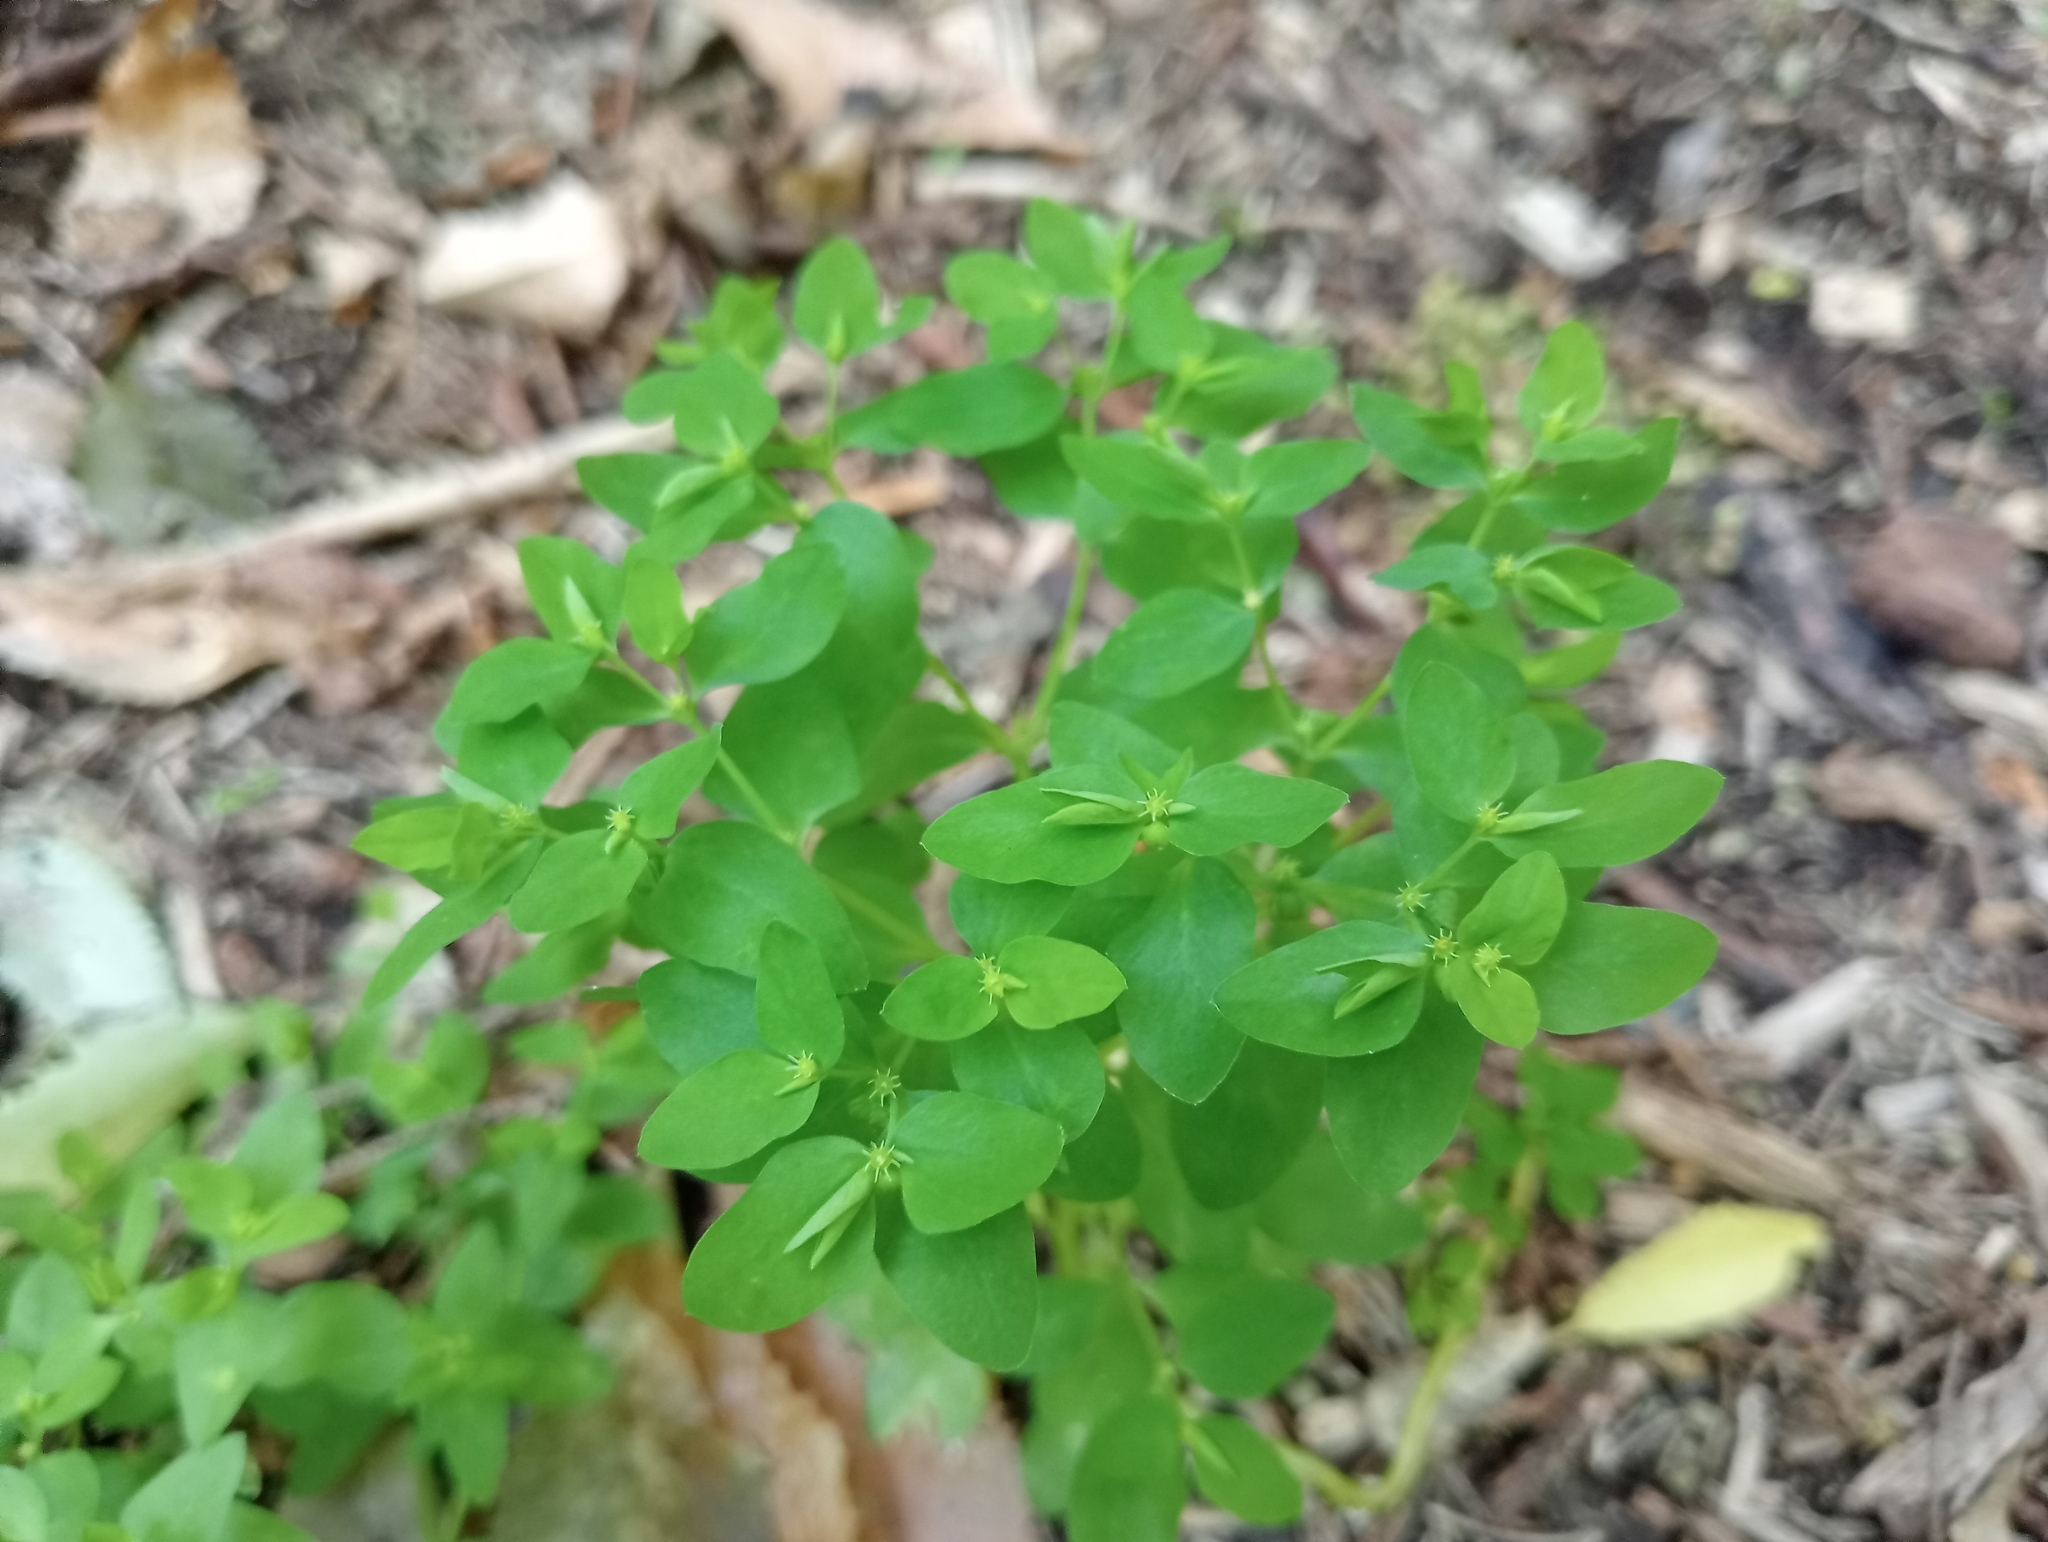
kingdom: Plantae
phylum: Tracheophyta
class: Magnoliopsida
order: Malpighiales
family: Euphorbiaceae
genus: Euphorbia
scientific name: Euphorbia peplus
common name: Petty spurge
